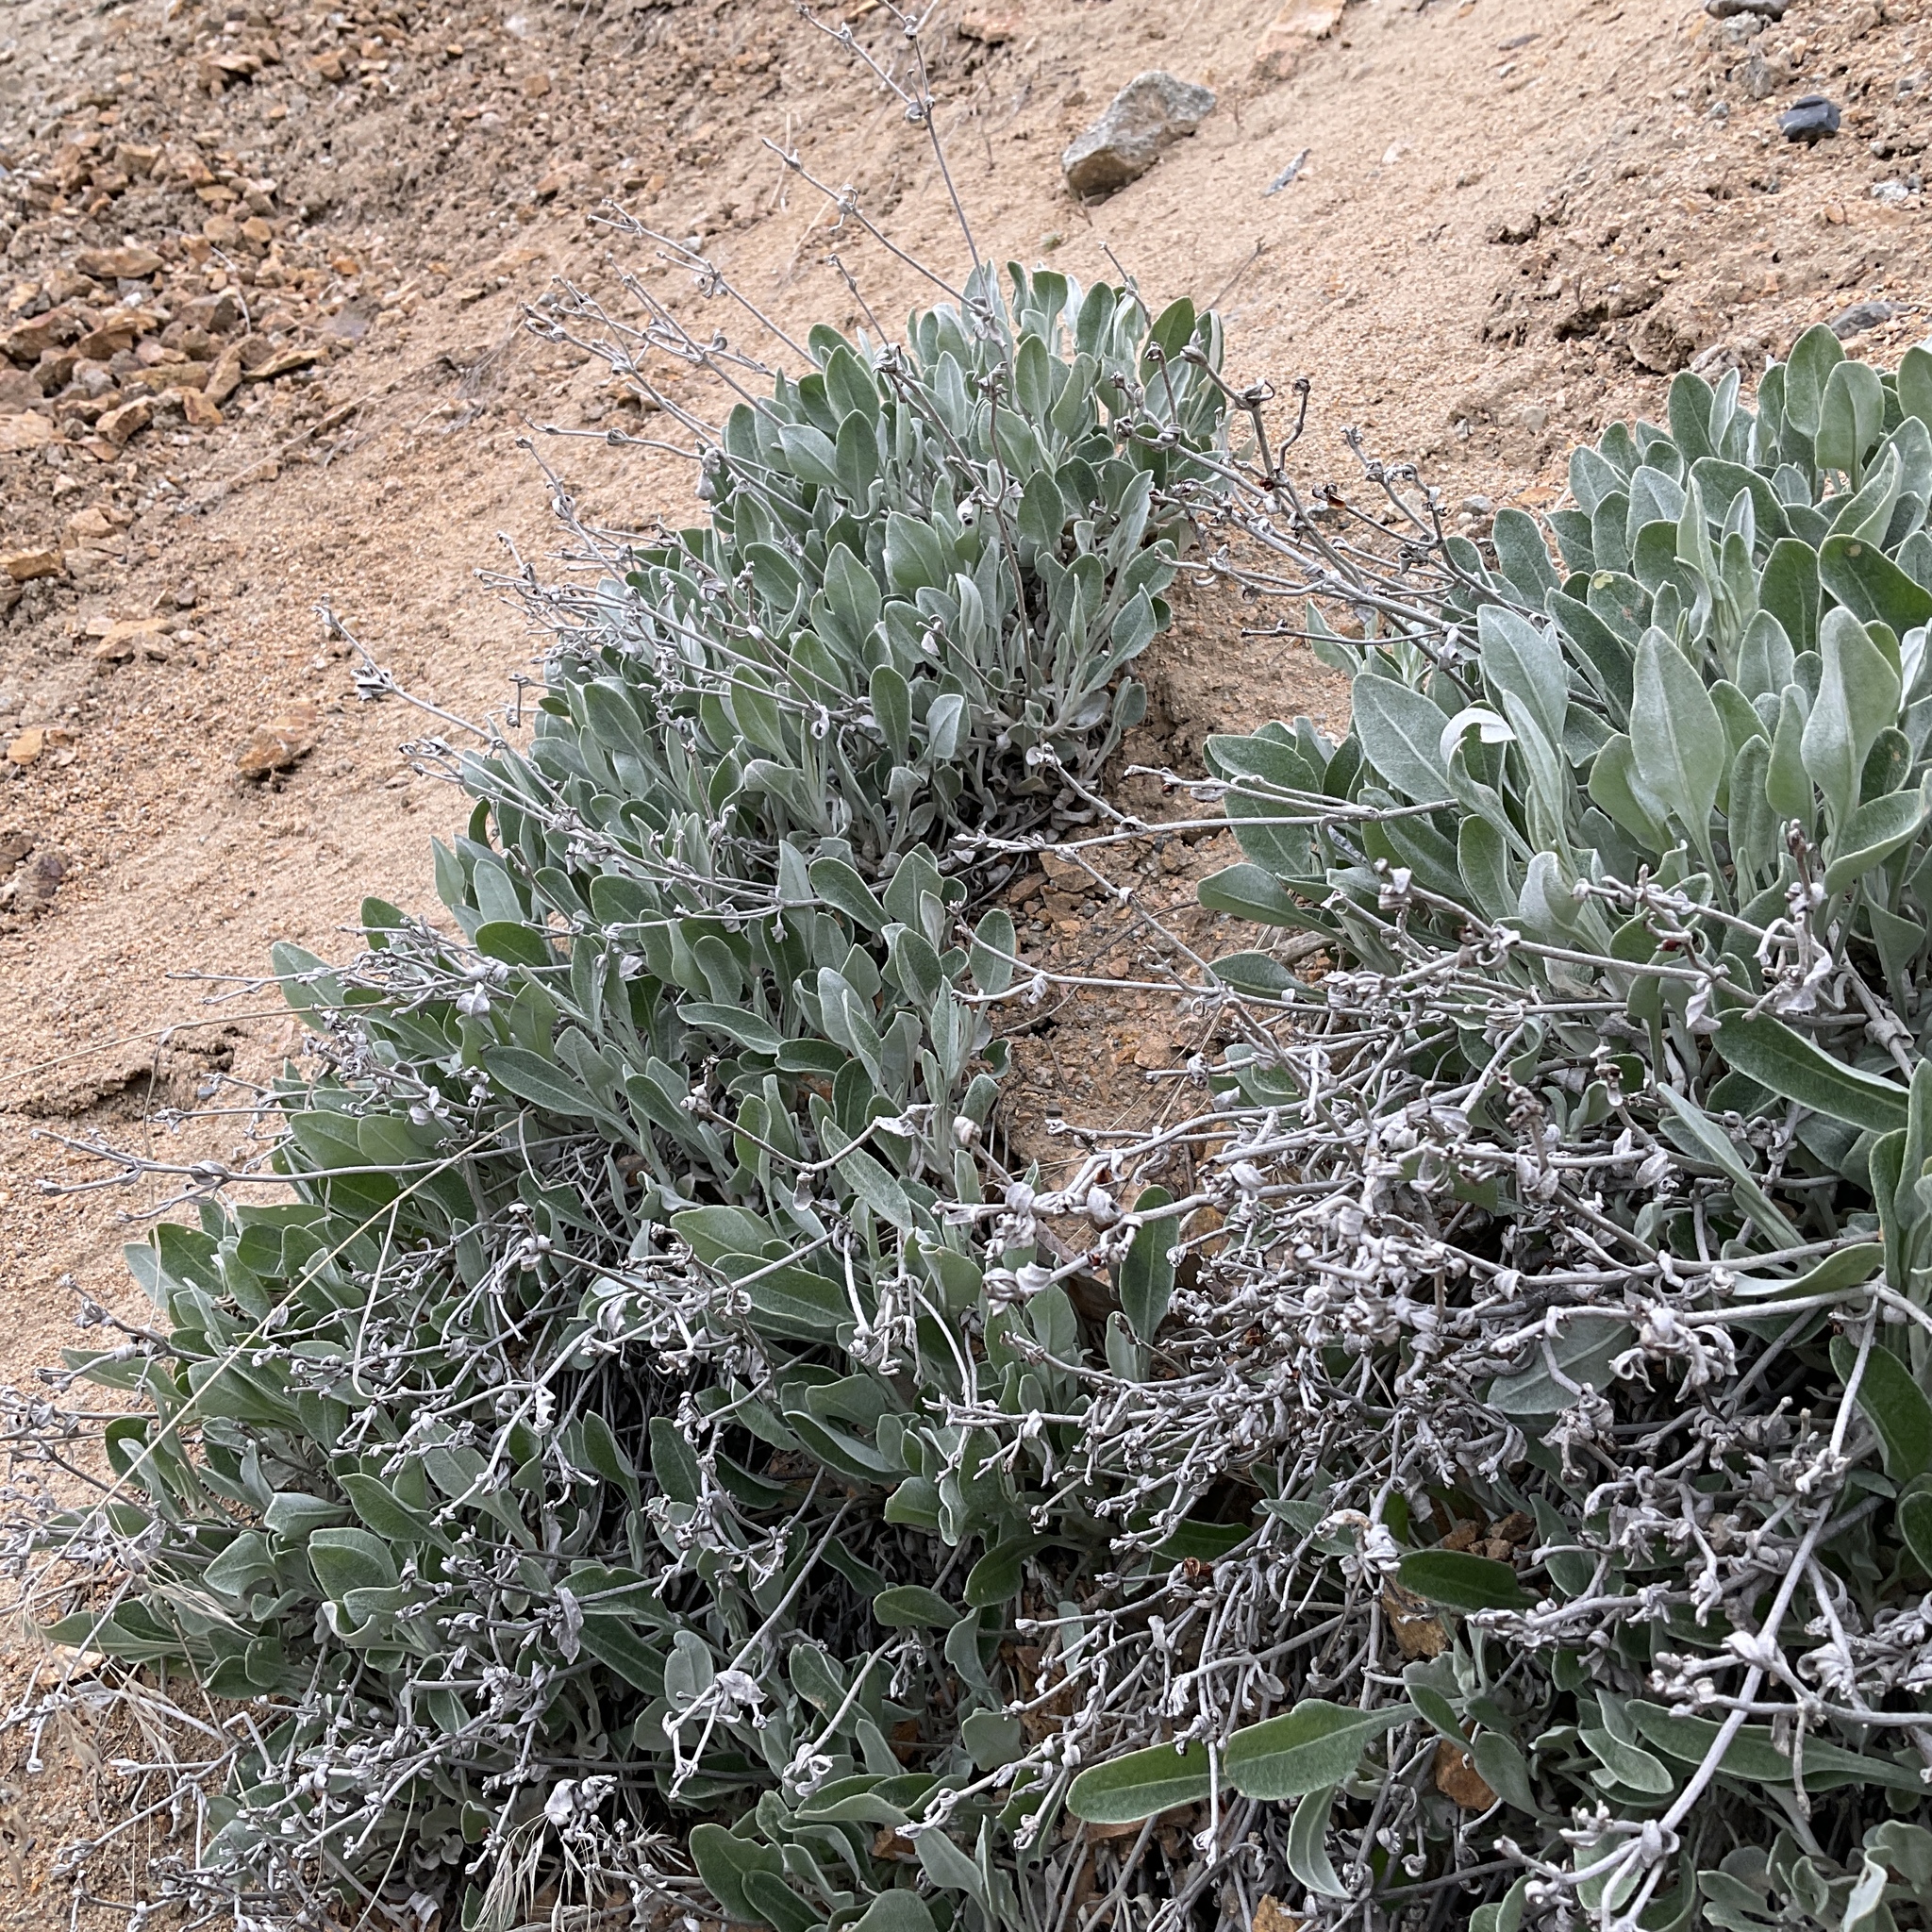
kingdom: Plantae
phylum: Tracheophyta
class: Magnoliopsida
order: Caryophyllales
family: Polygonaceae
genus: Eriogonum
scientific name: Eriogonum niveum
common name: Snow wild buckwheat
